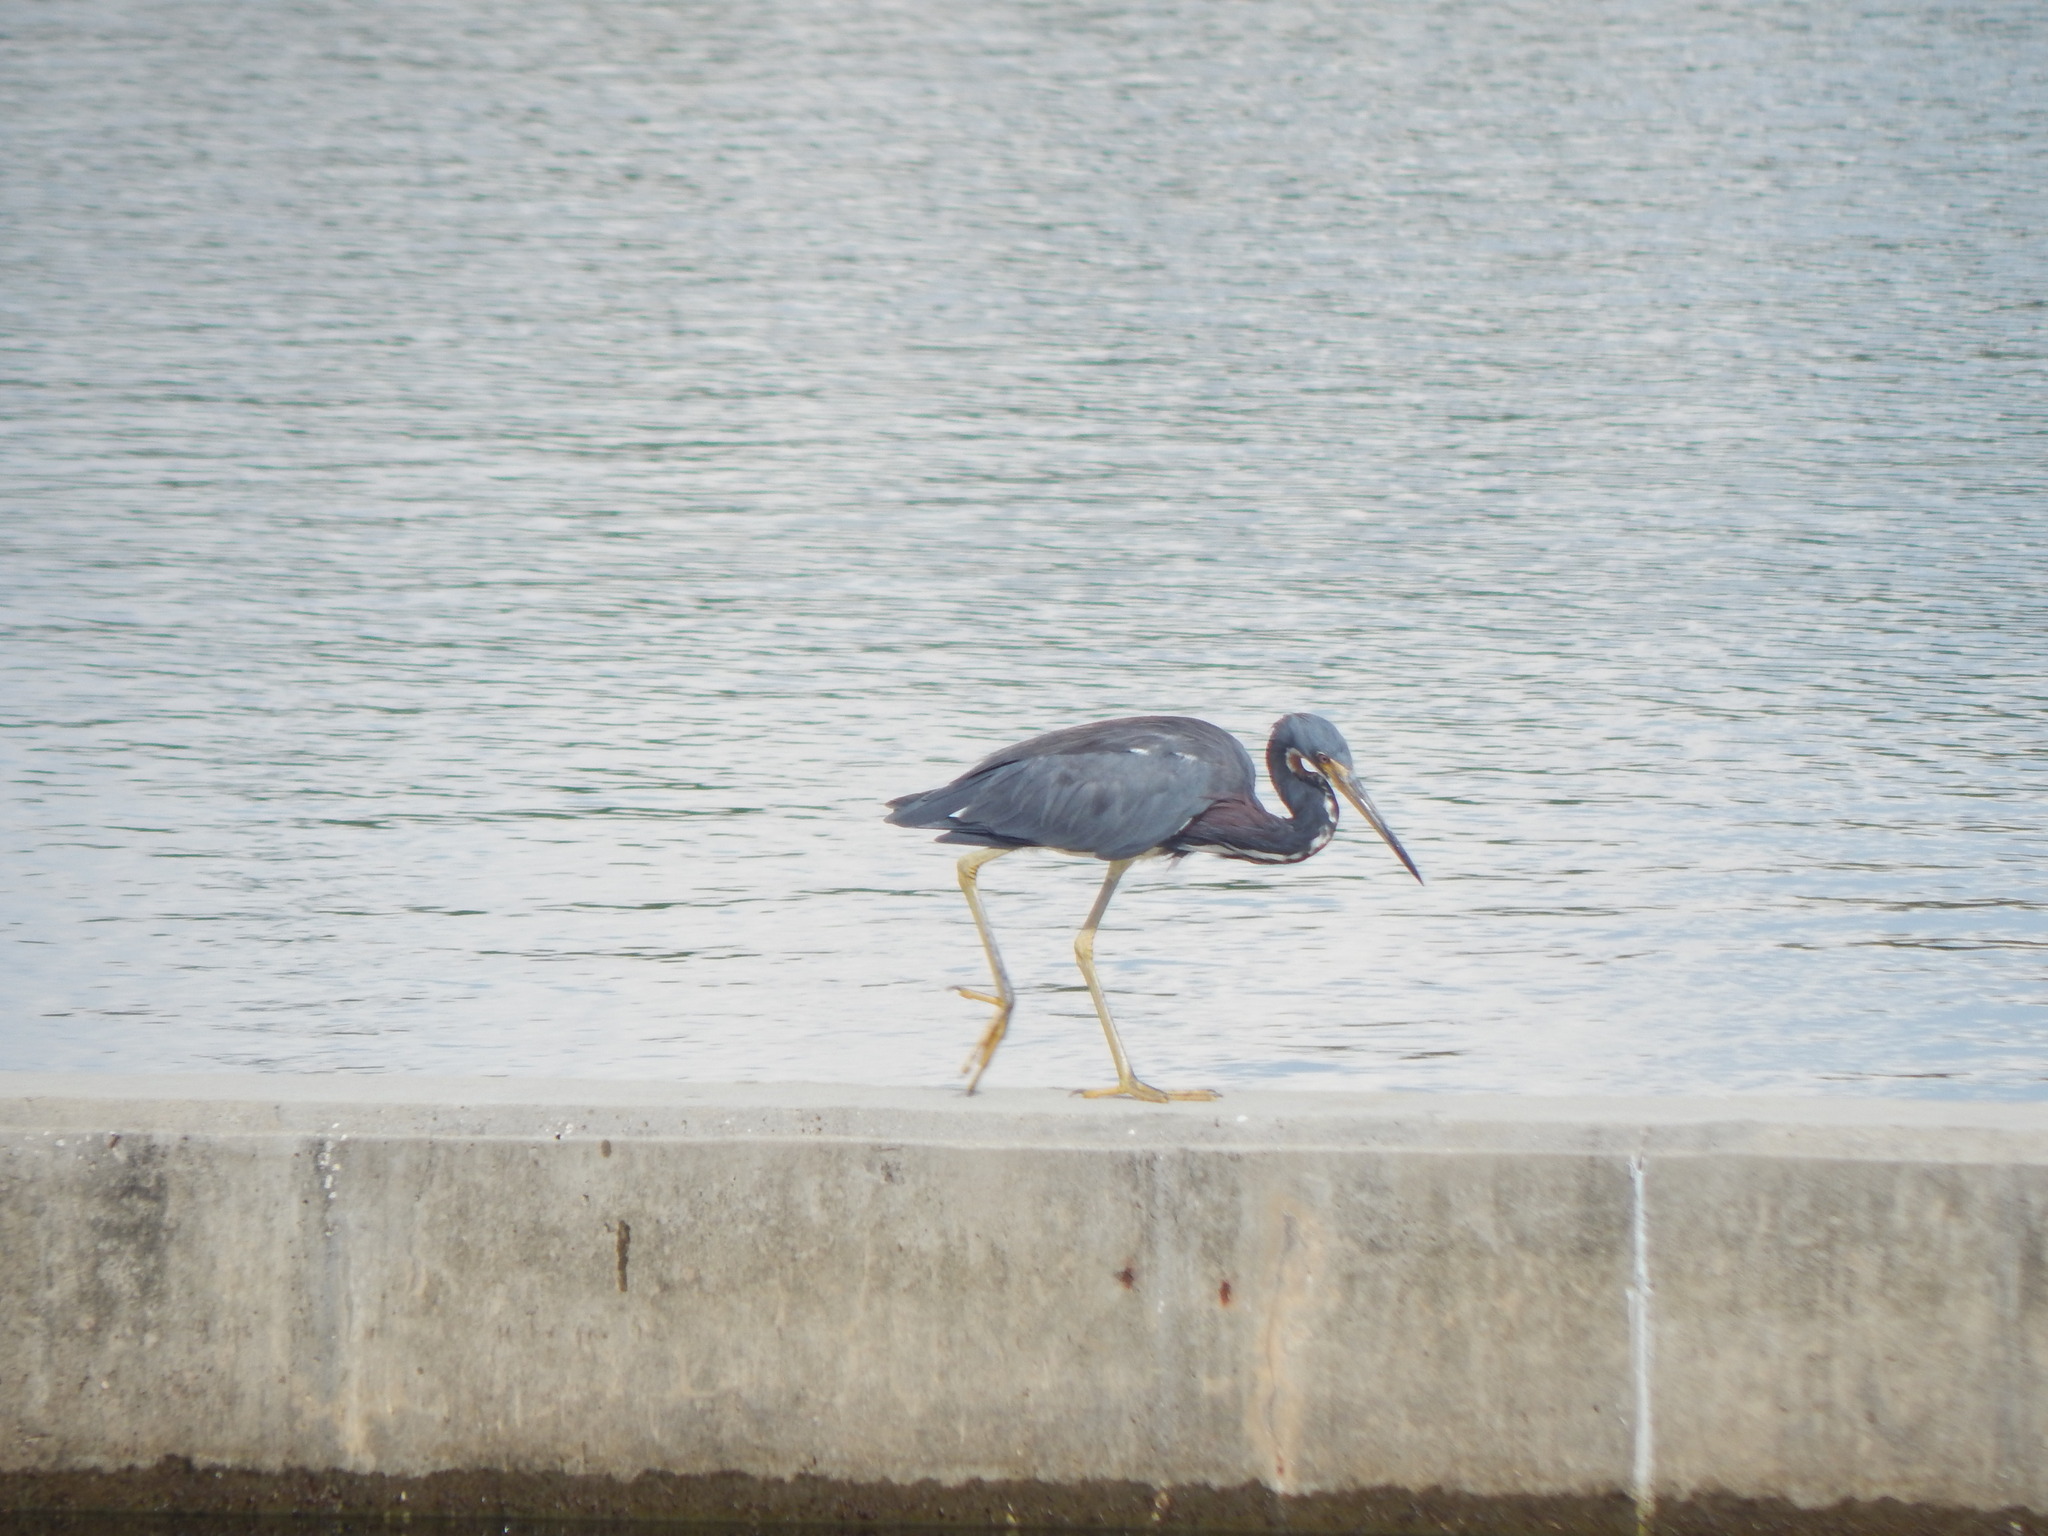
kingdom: Animalia
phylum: Chordata
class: Aves
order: Pelecaniformes
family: Ardeidae
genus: Egretta
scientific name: Egretta tricolor
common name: Tricolored heron
